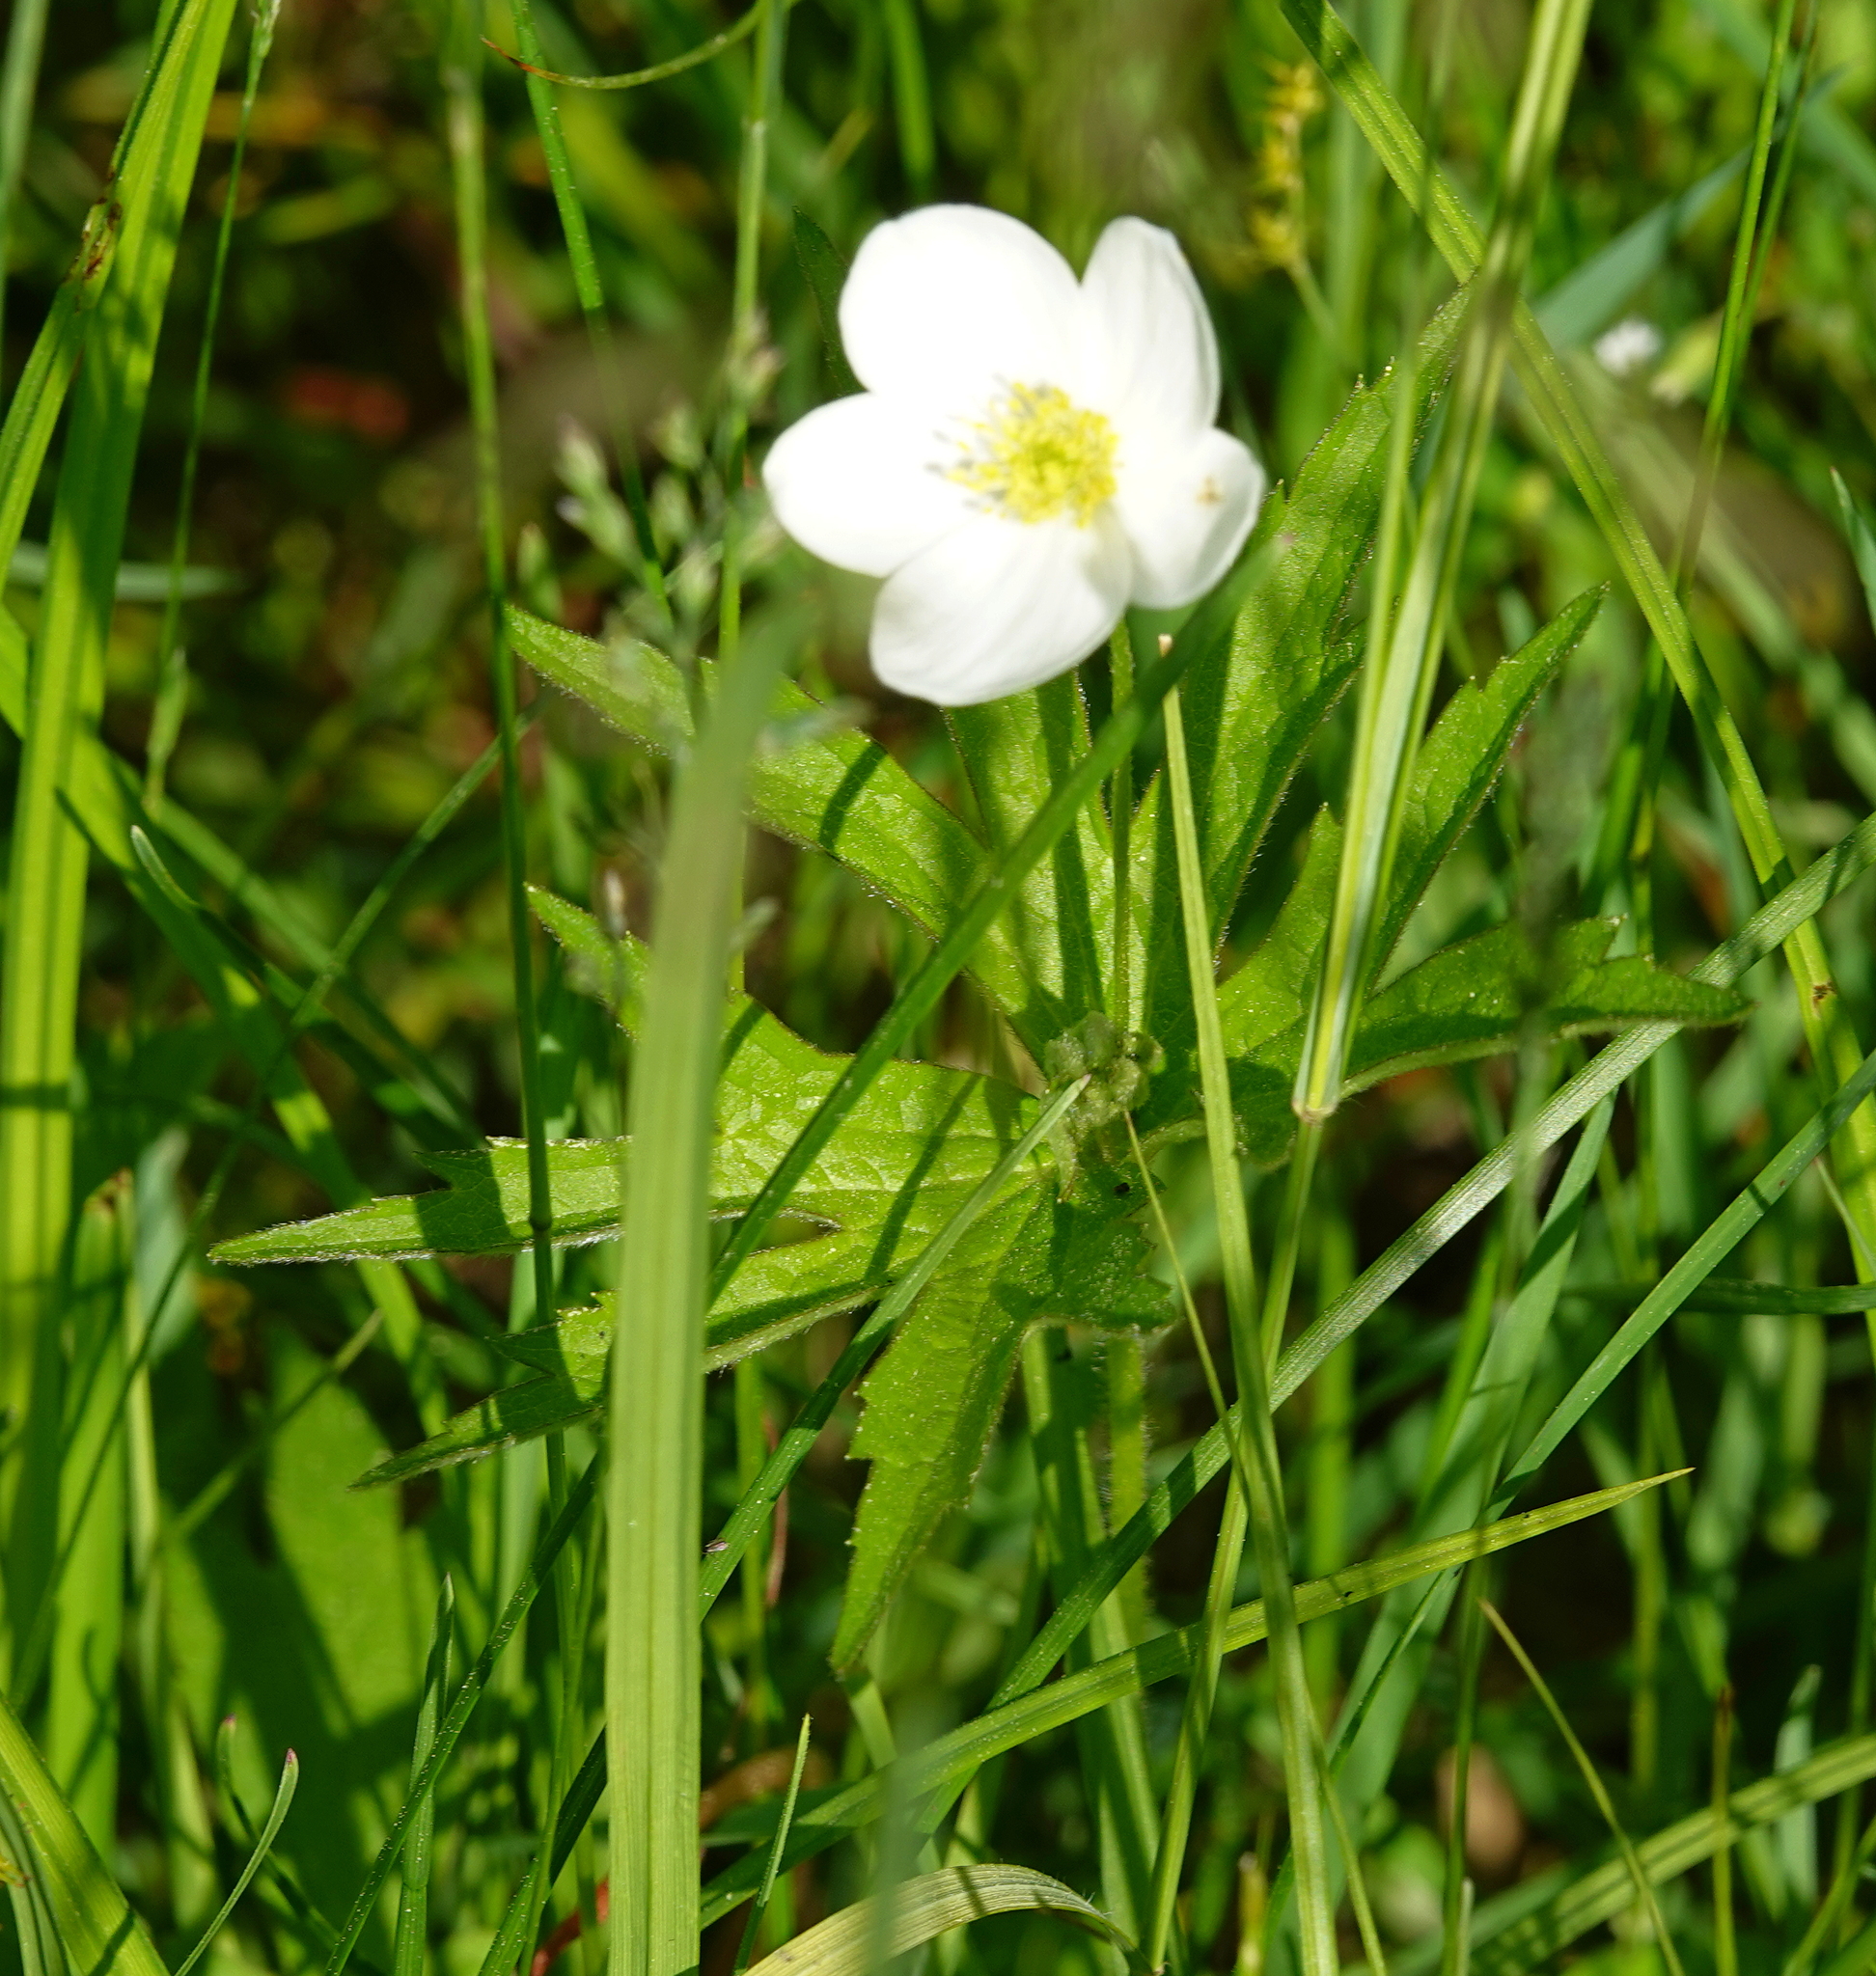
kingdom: Plantae
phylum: Tracheophyta
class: Magnoliopsida
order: Ranunculales
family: Ranunculaceae
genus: Anemonastrum
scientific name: Anemonastrum canadense
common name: Canada anemone
